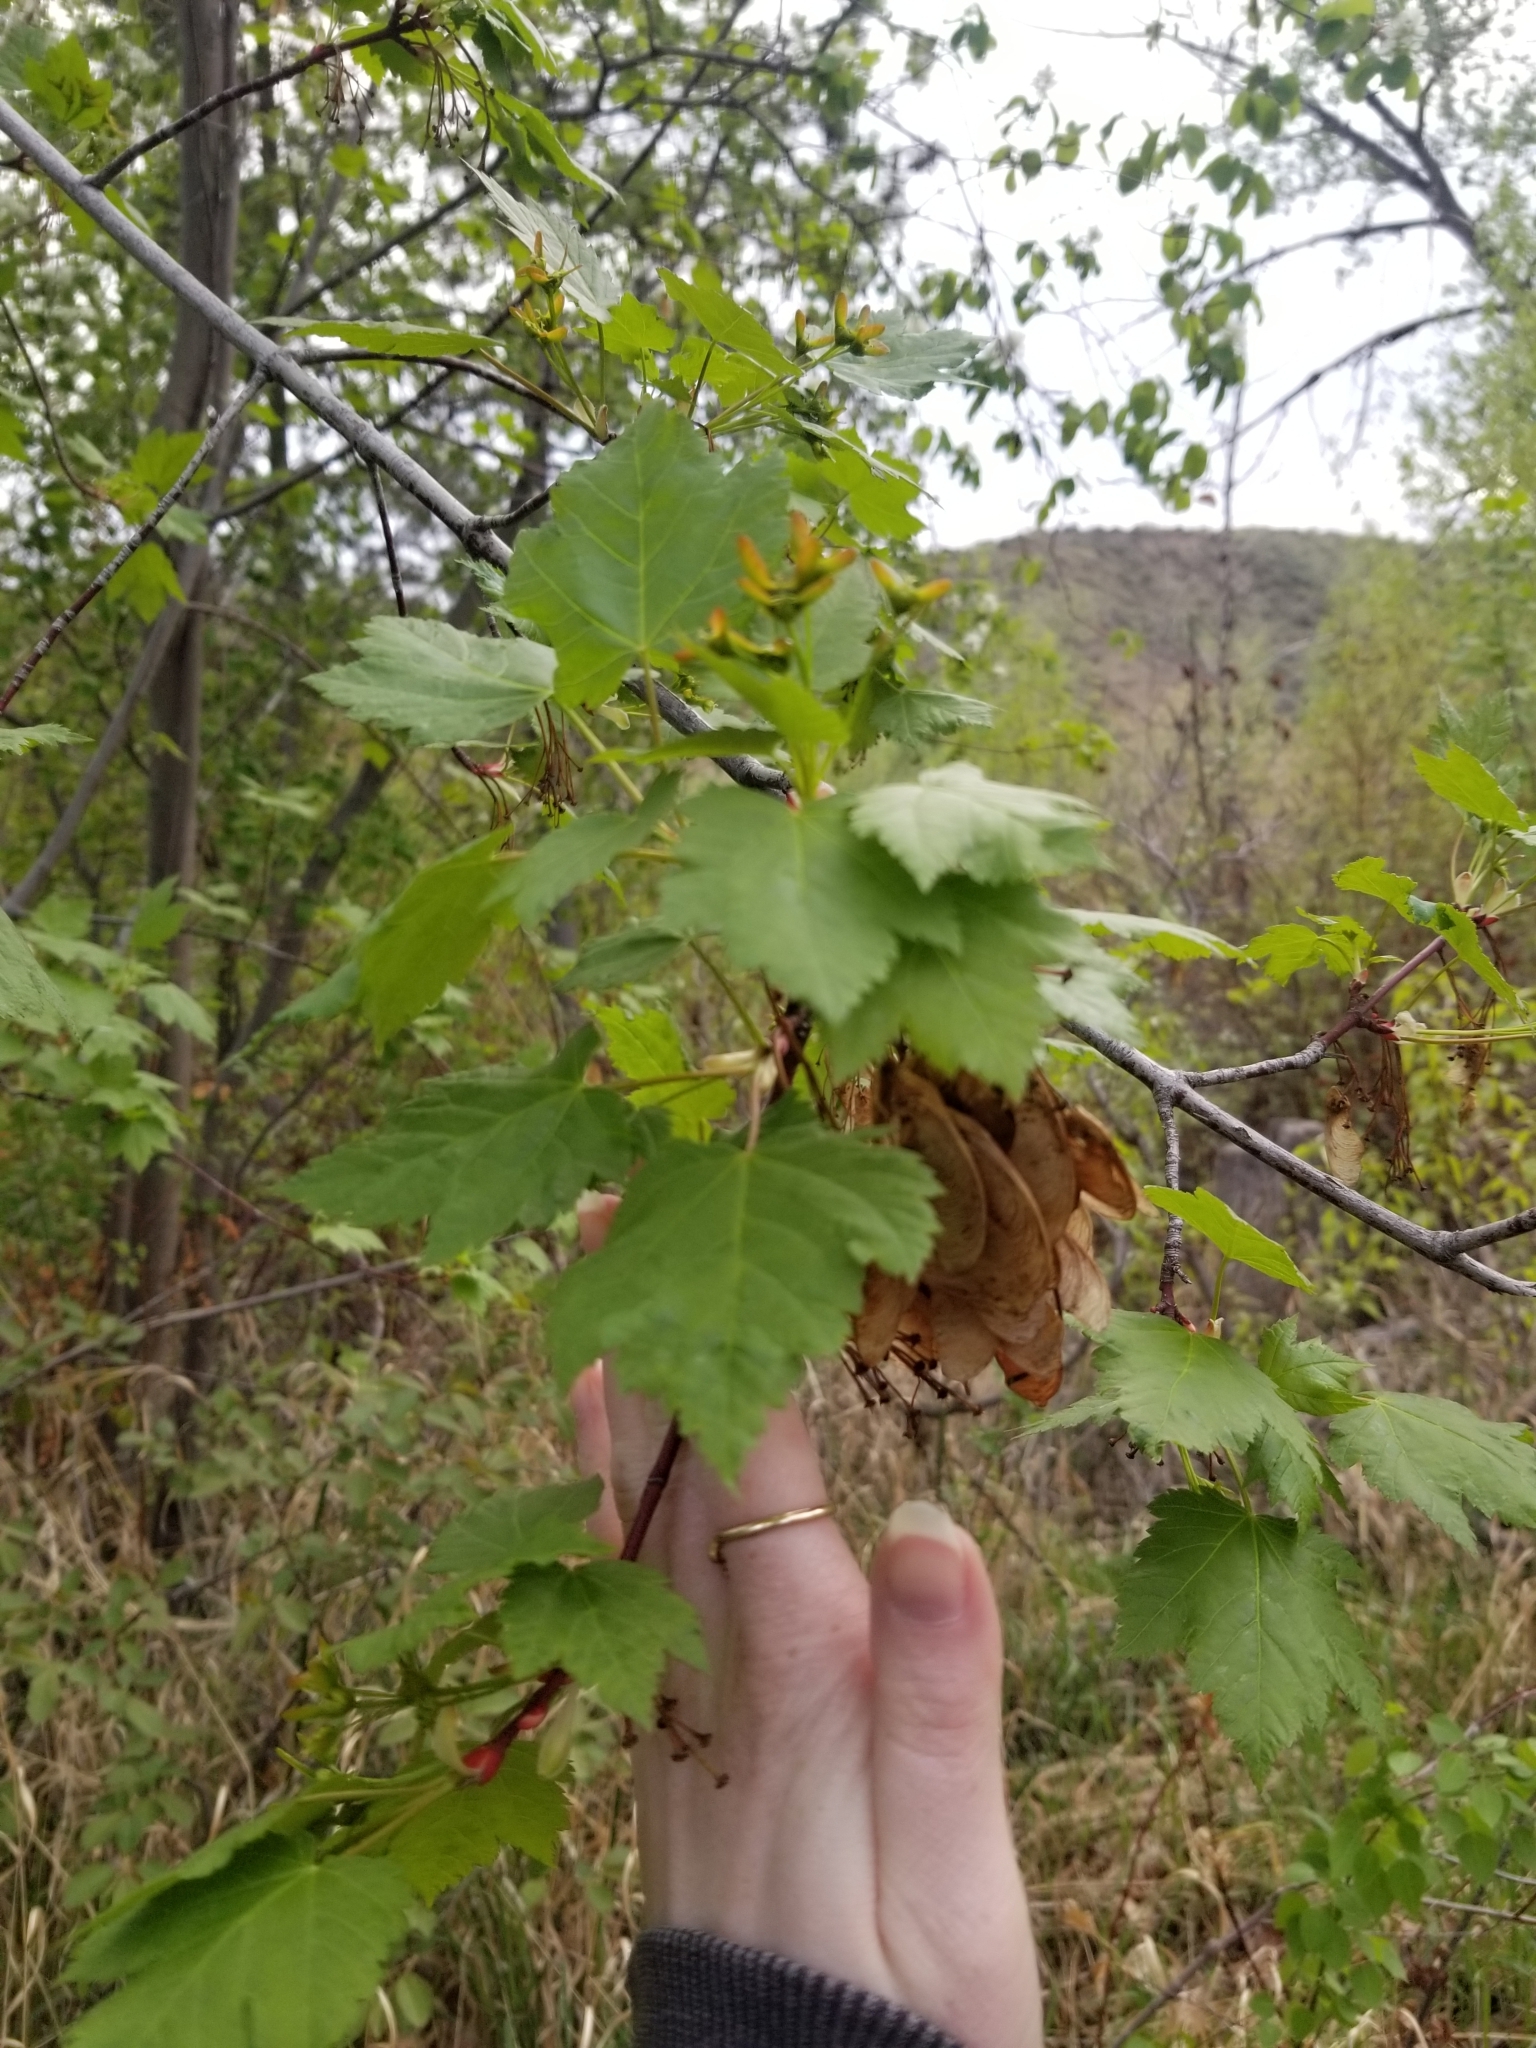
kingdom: Plantae
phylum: Tracheophyta
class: Magnoliopsida
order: Sapindales
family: Sapindaceae
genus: Acer
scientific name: Acer glabrum
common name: Rocky mountain maple
